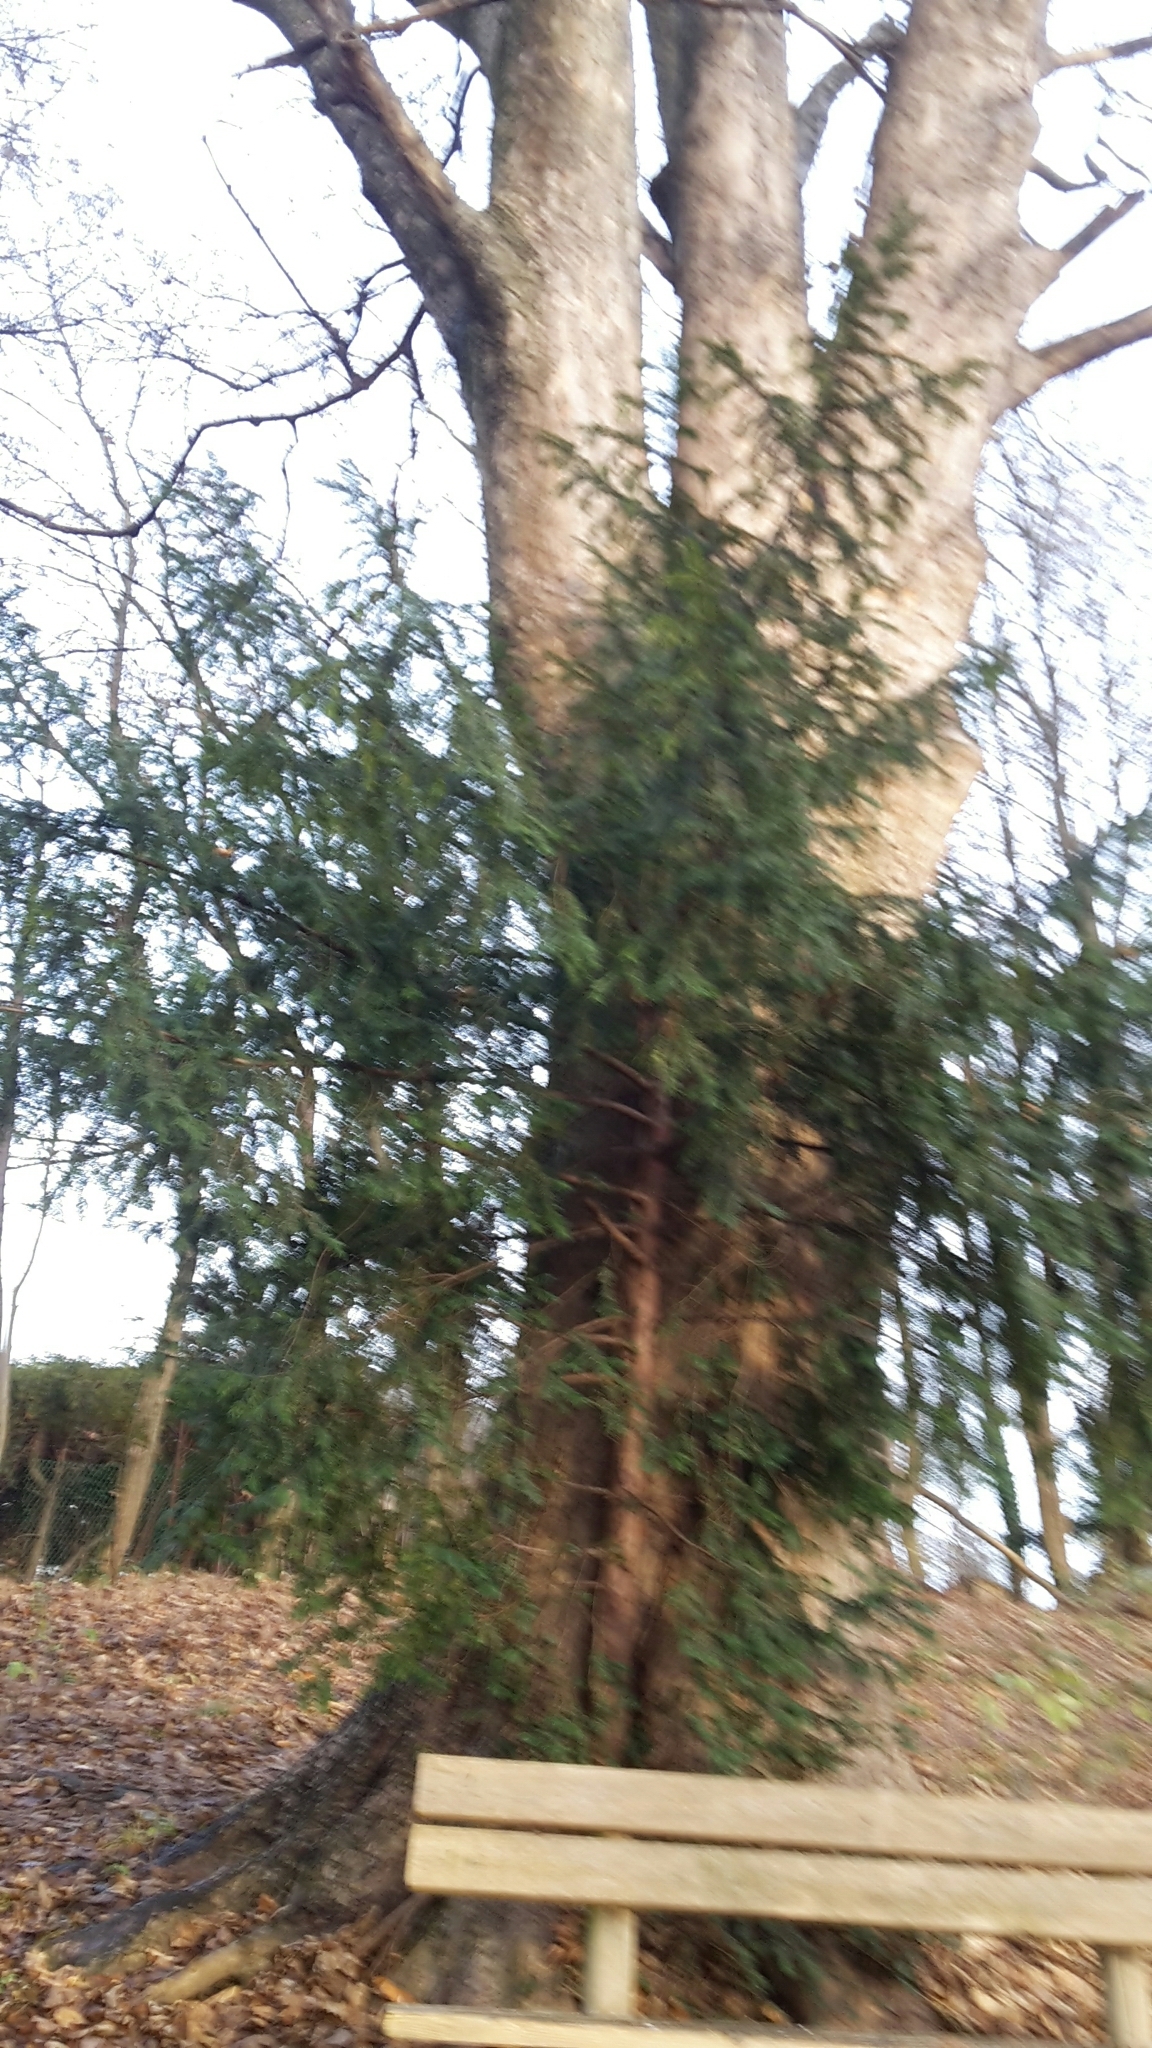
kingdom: Plantae
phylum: Tracheophyta
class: Pinopsida
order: Pinales
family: Taxaceae
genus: Taxus
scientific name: Taxus baccata
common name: Yew
